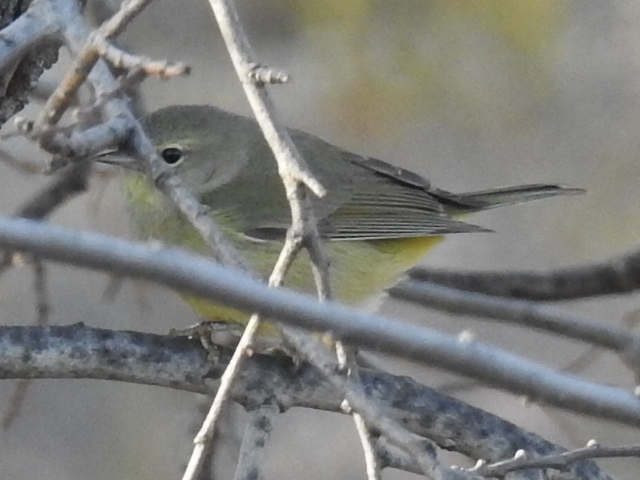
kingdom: Animalia
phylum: Chordata
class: Aves
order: Passeriformes
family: Parulidae
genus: Leiothlypis
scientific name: Leiothlypis celata
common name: Orange-crowned warbler
